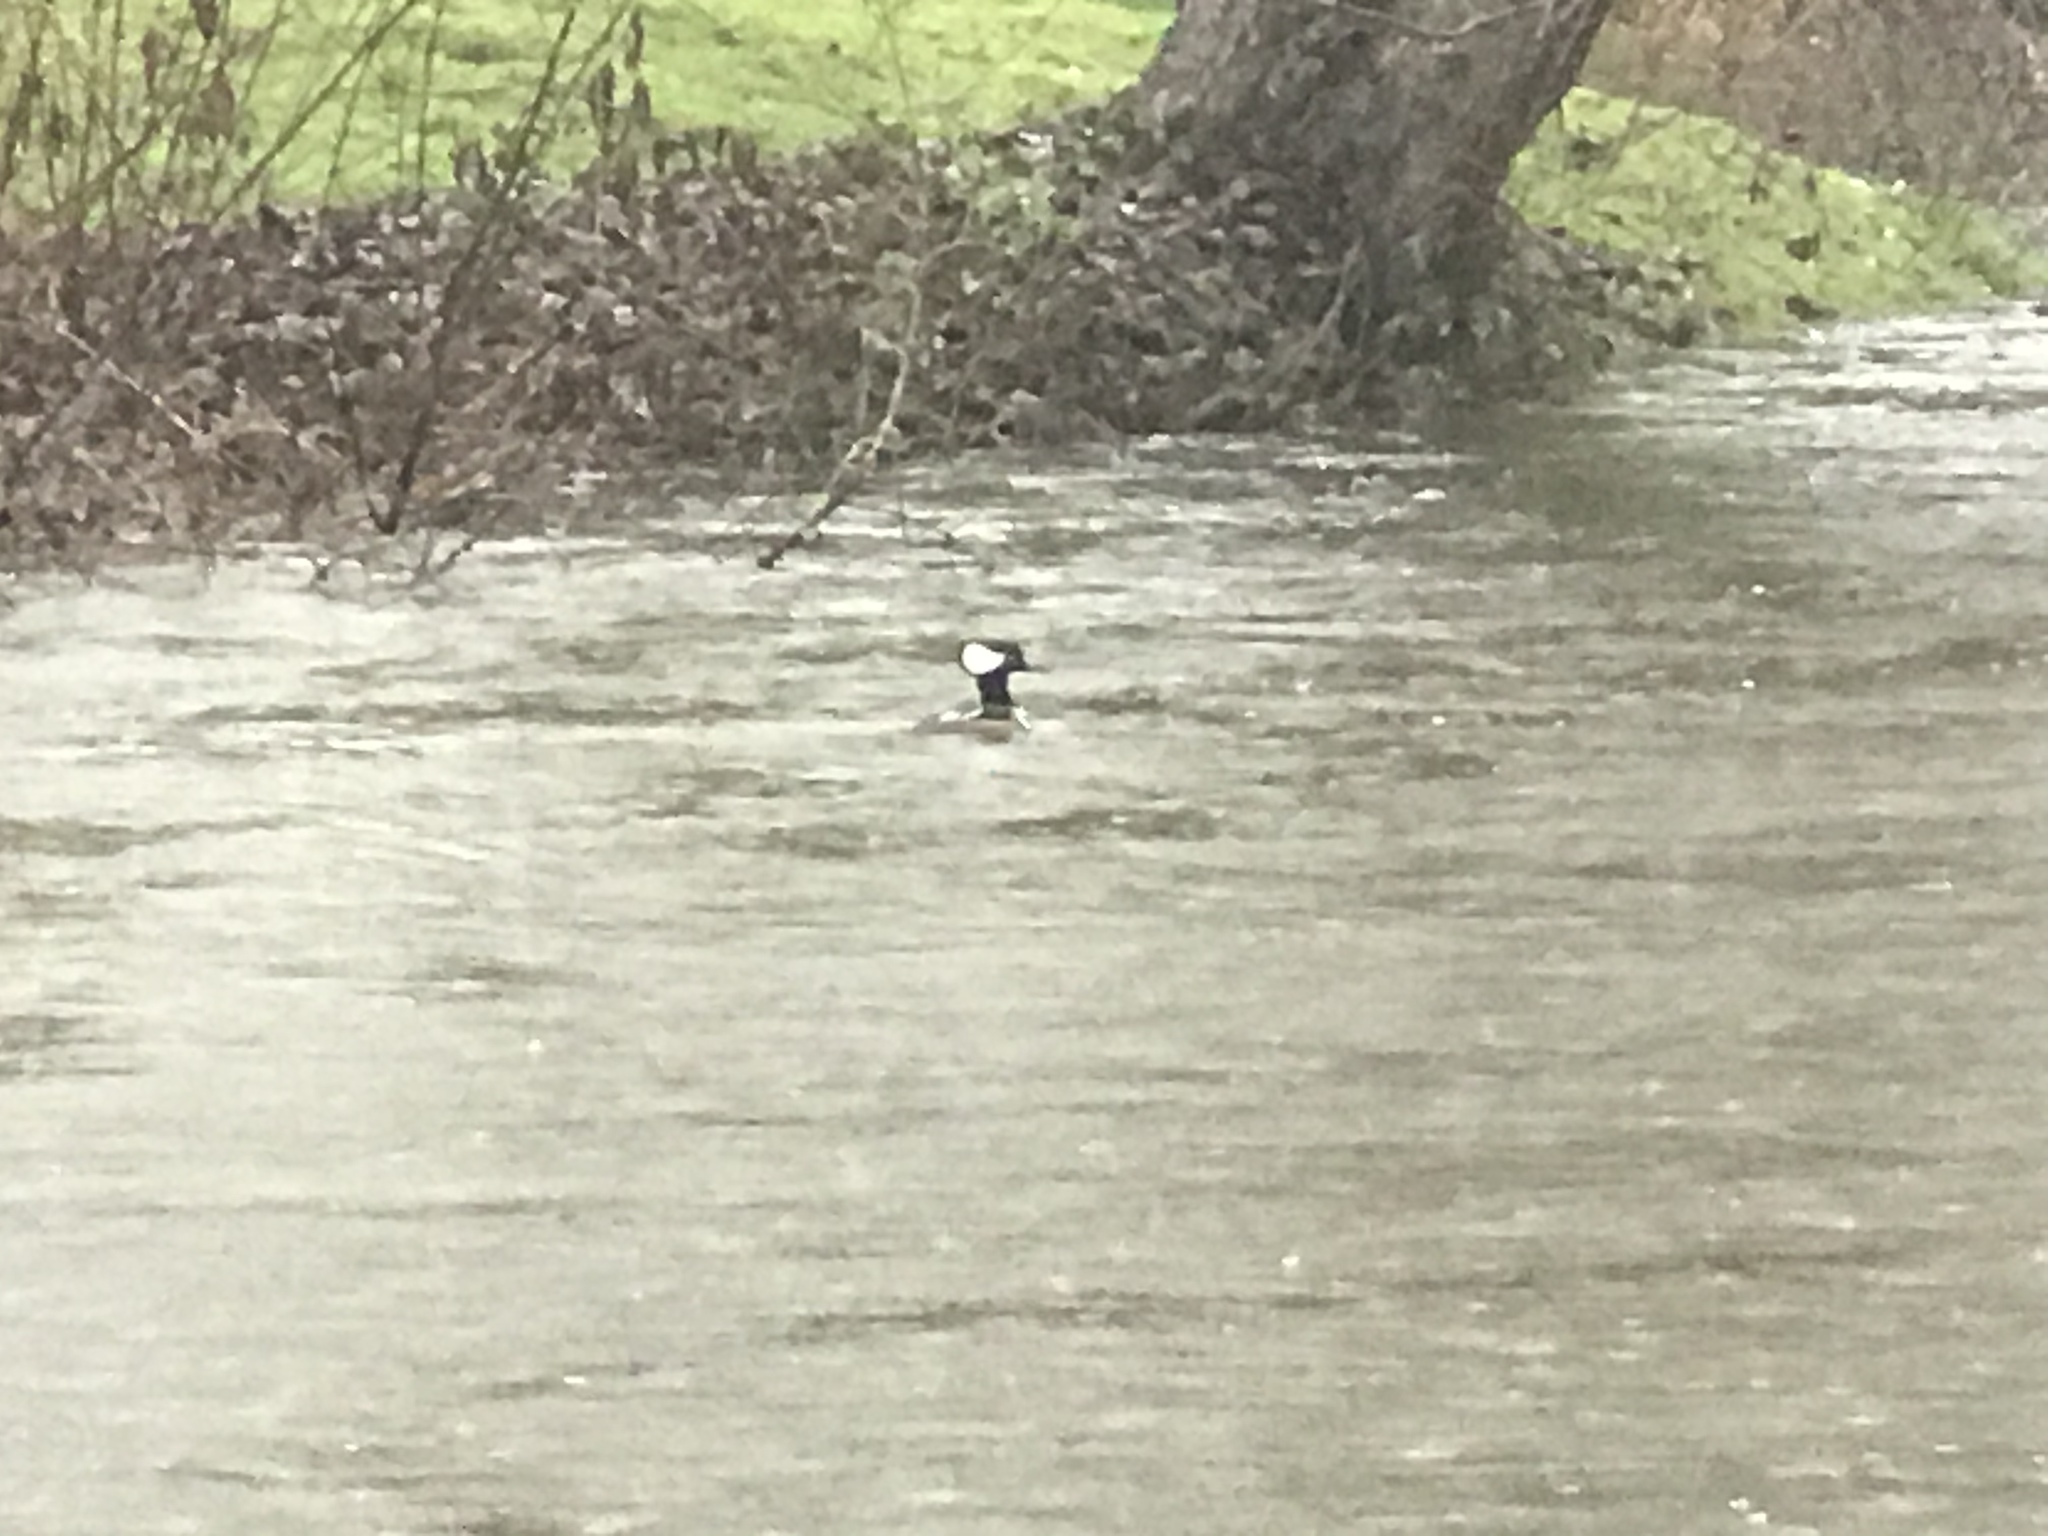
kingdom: Animalia
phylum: Chordata
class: Aves
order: Anseriformes
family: Anatidae
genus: Lophodytes
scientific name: Lophodytes cucullatus
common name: Hooded merganser
